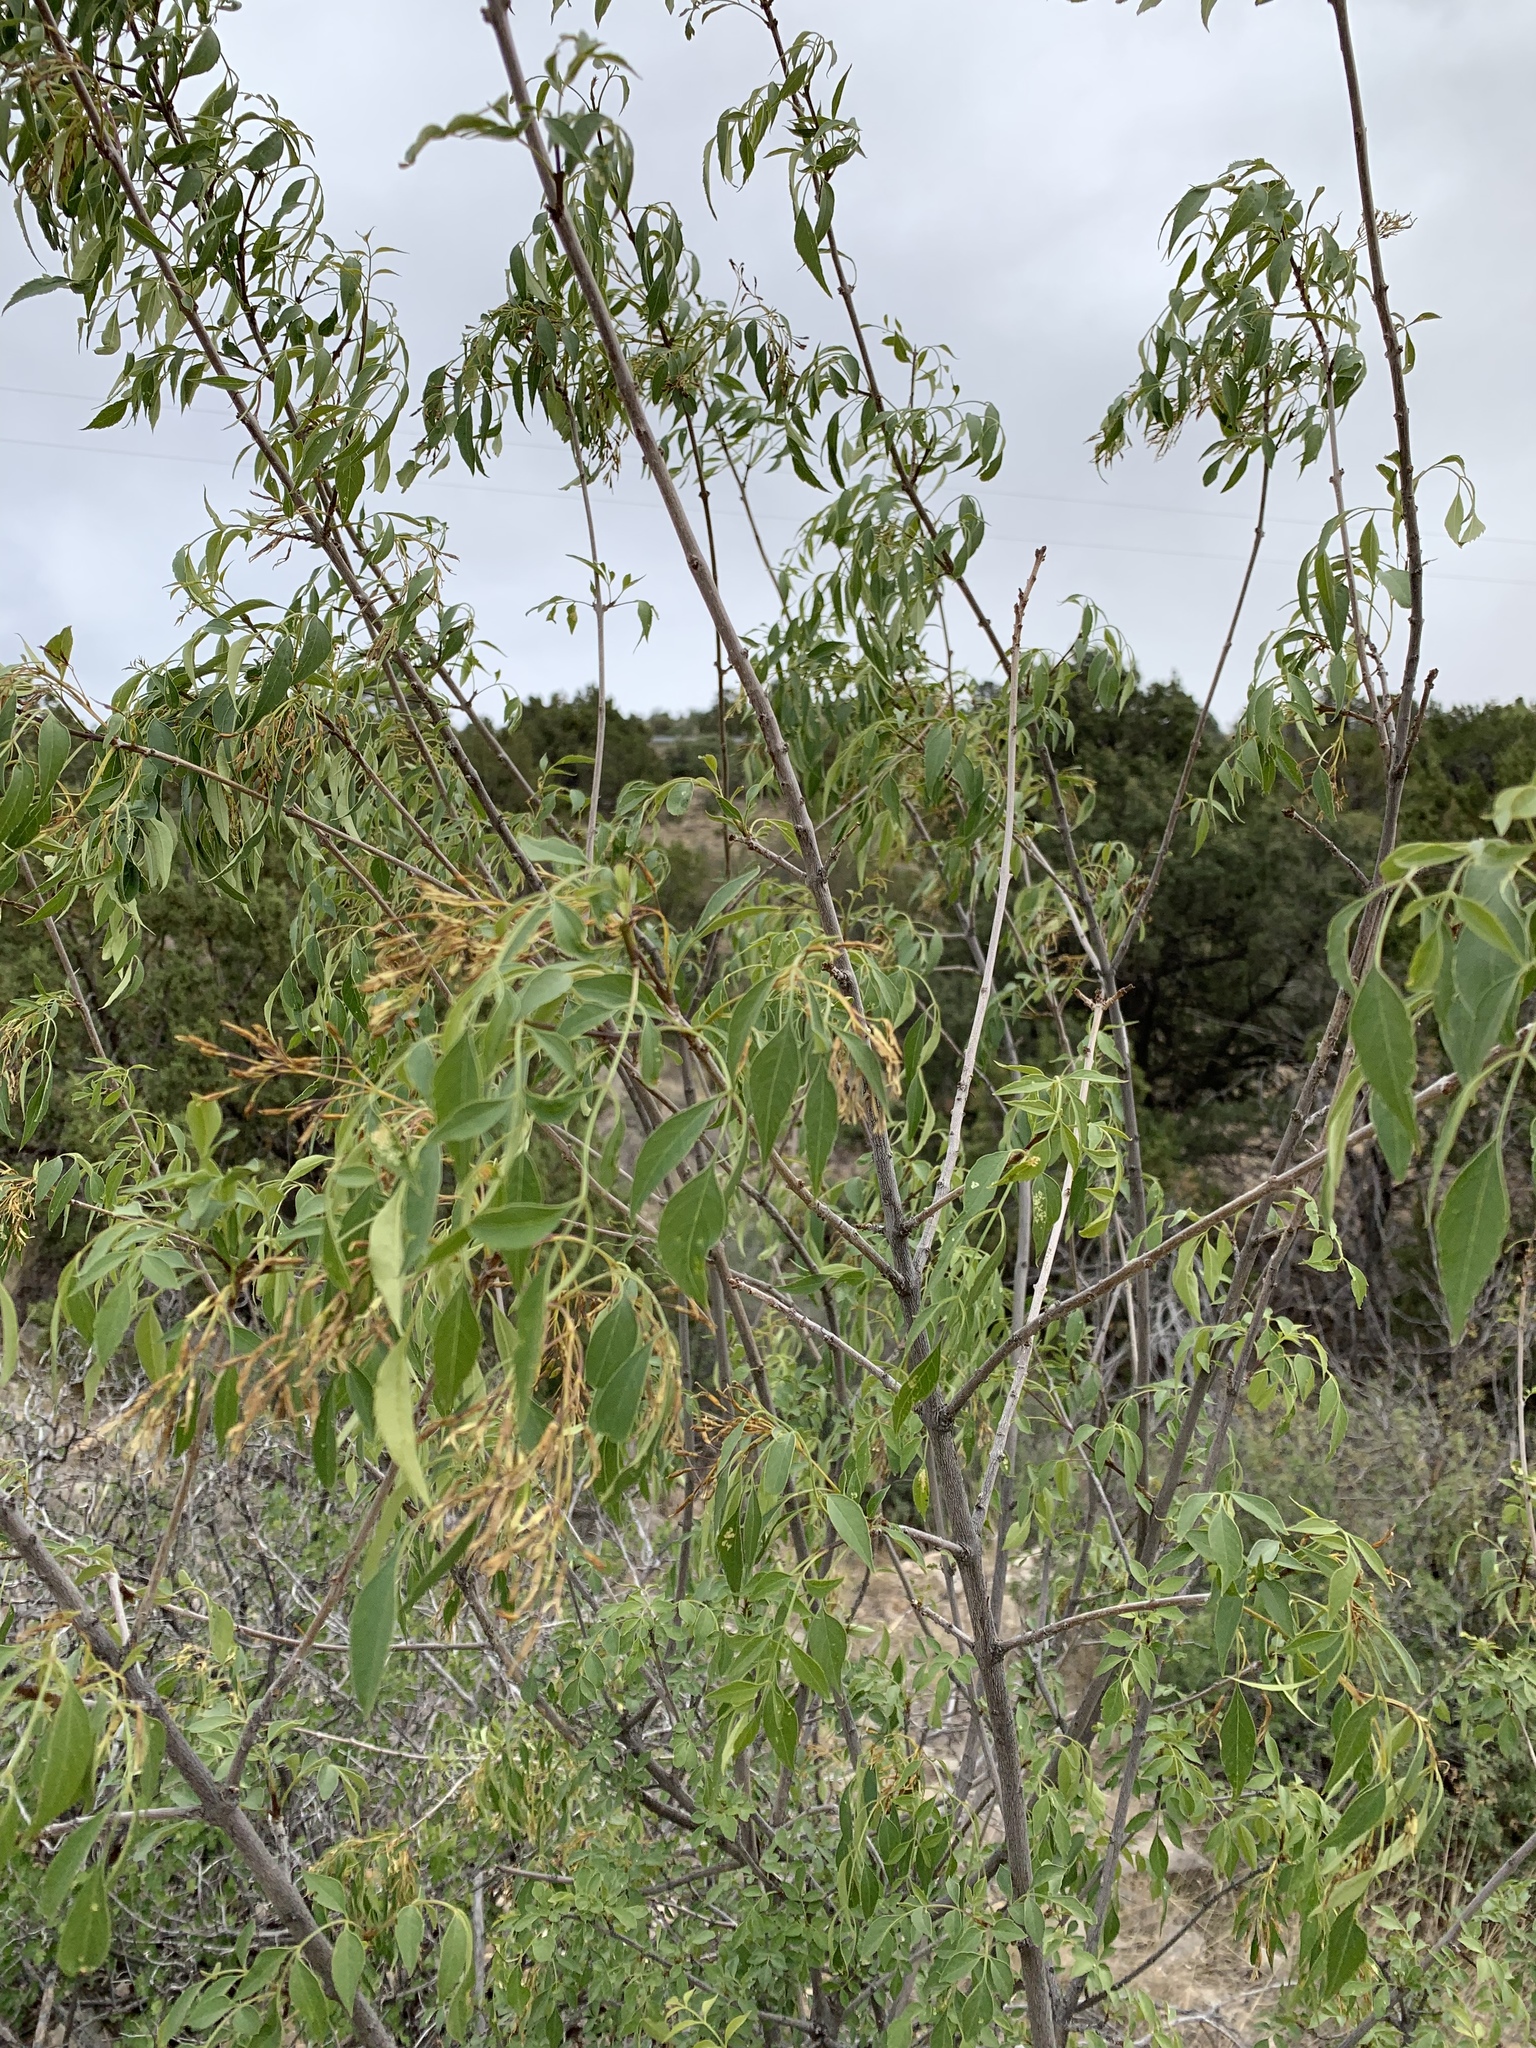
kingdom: Plantae
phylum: Tracheophyta
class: Magnoliopsida
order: Lamiales
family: Oleaceae
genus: Fraxinus
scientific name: Fraxinus cuspidata
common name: Fragrant ash
